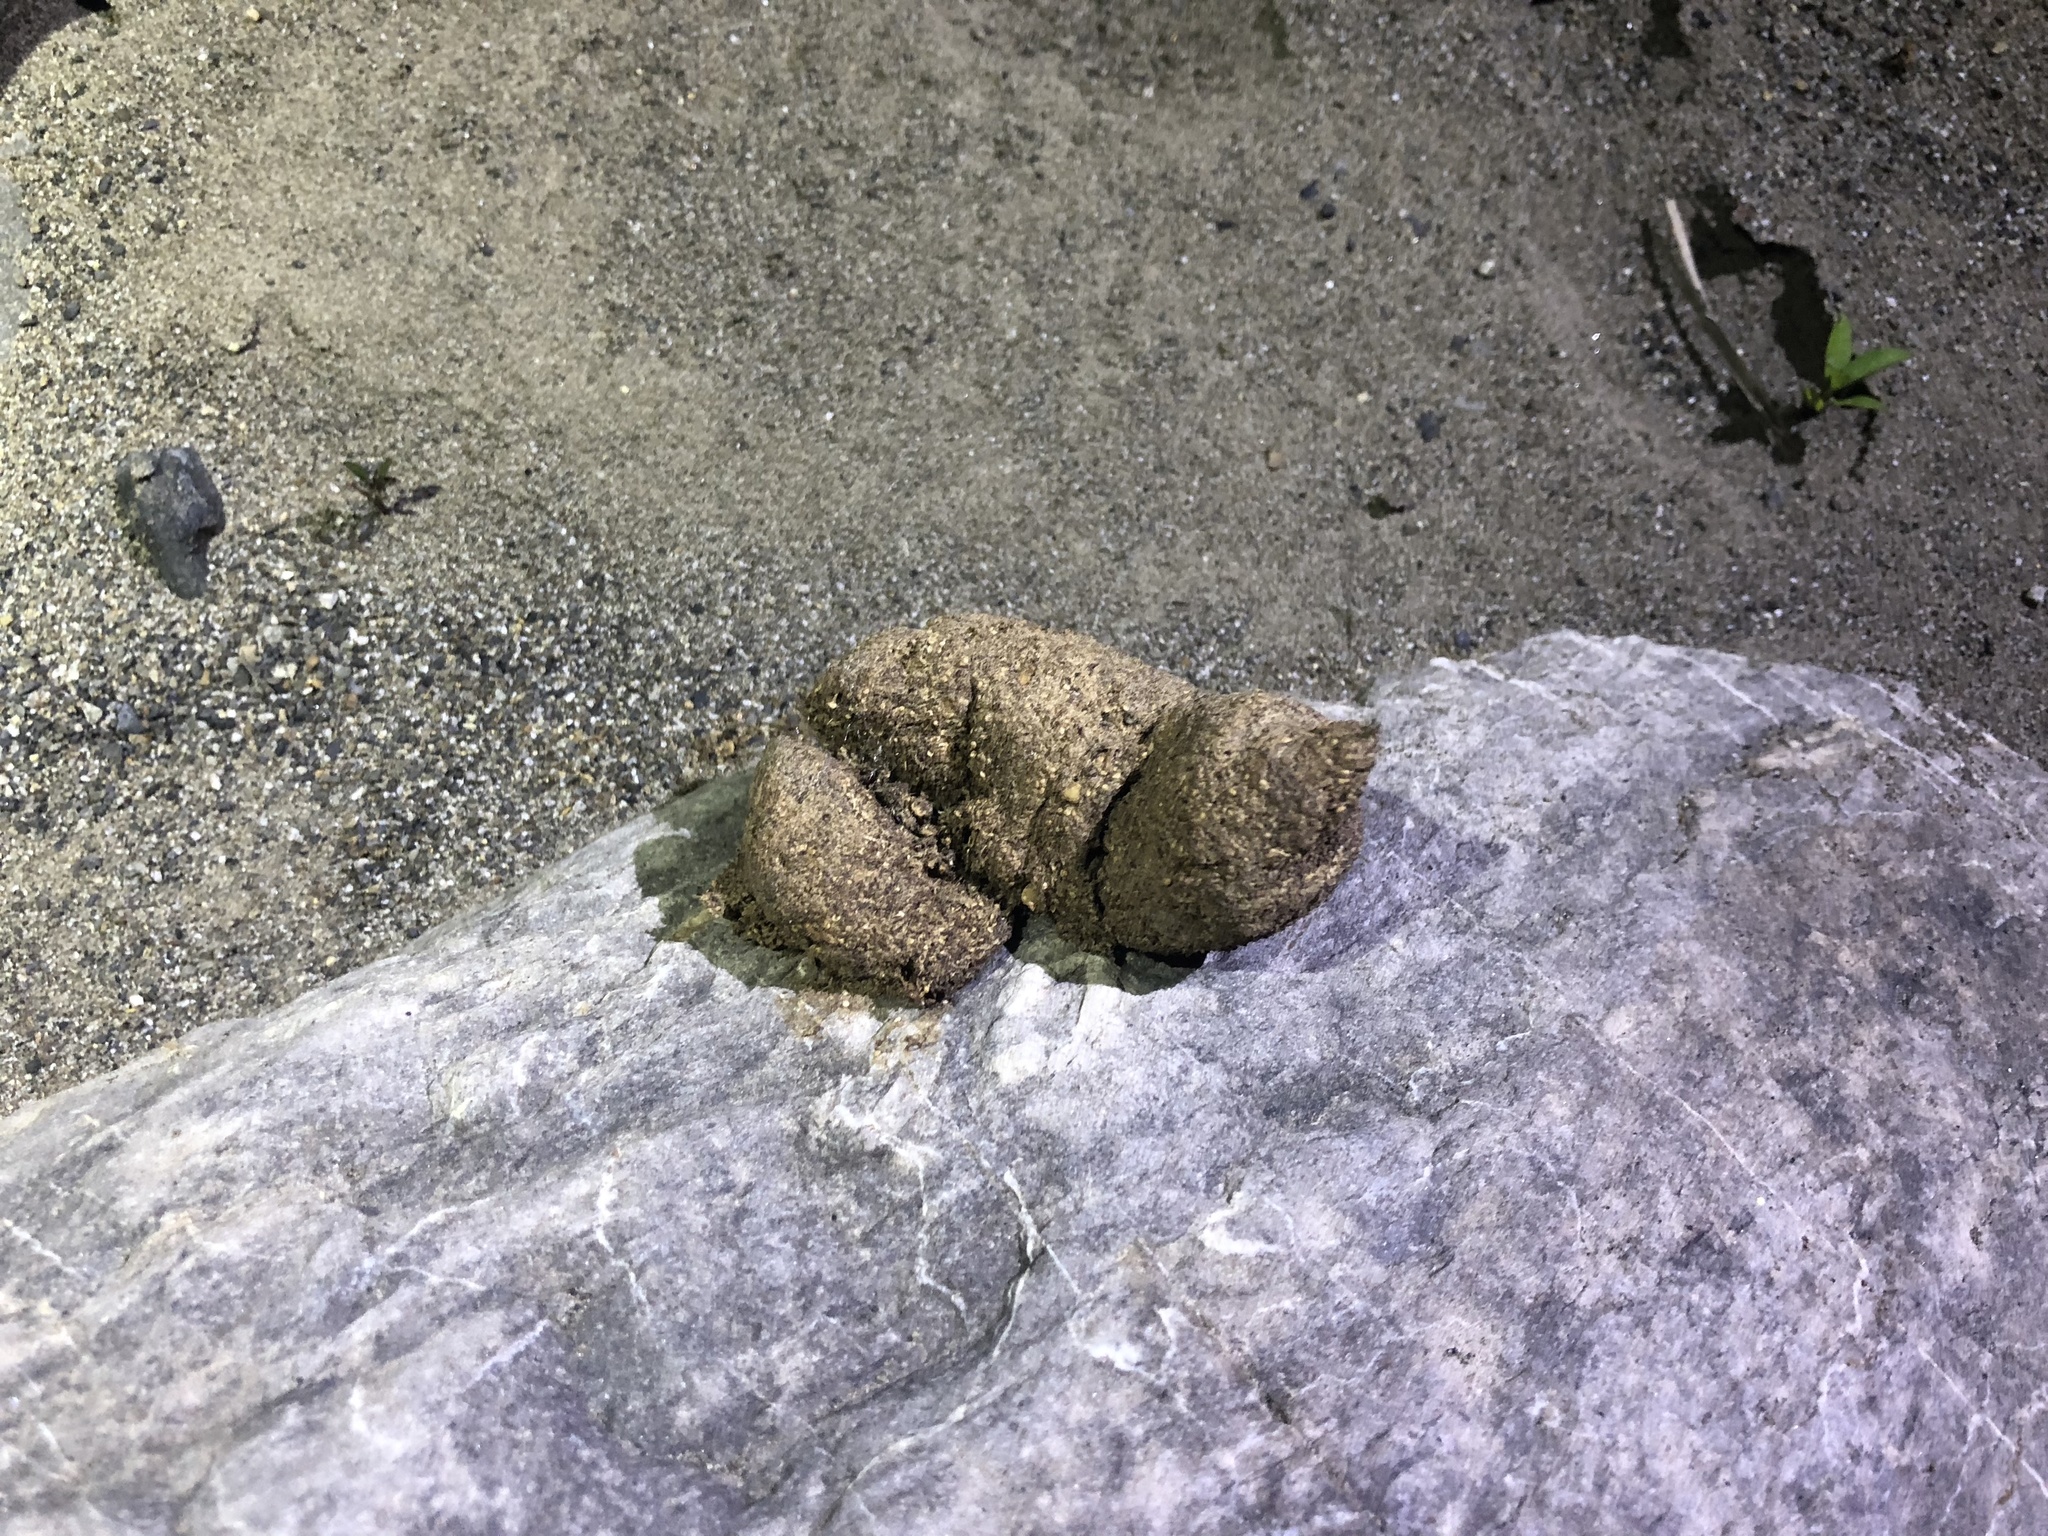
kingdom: Animalia
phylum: Chordata
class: Mammalia
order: Primates
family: Cercopithecidae
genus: Macaca
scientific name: Macaca cyclopis
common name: Formosan rock macaque
